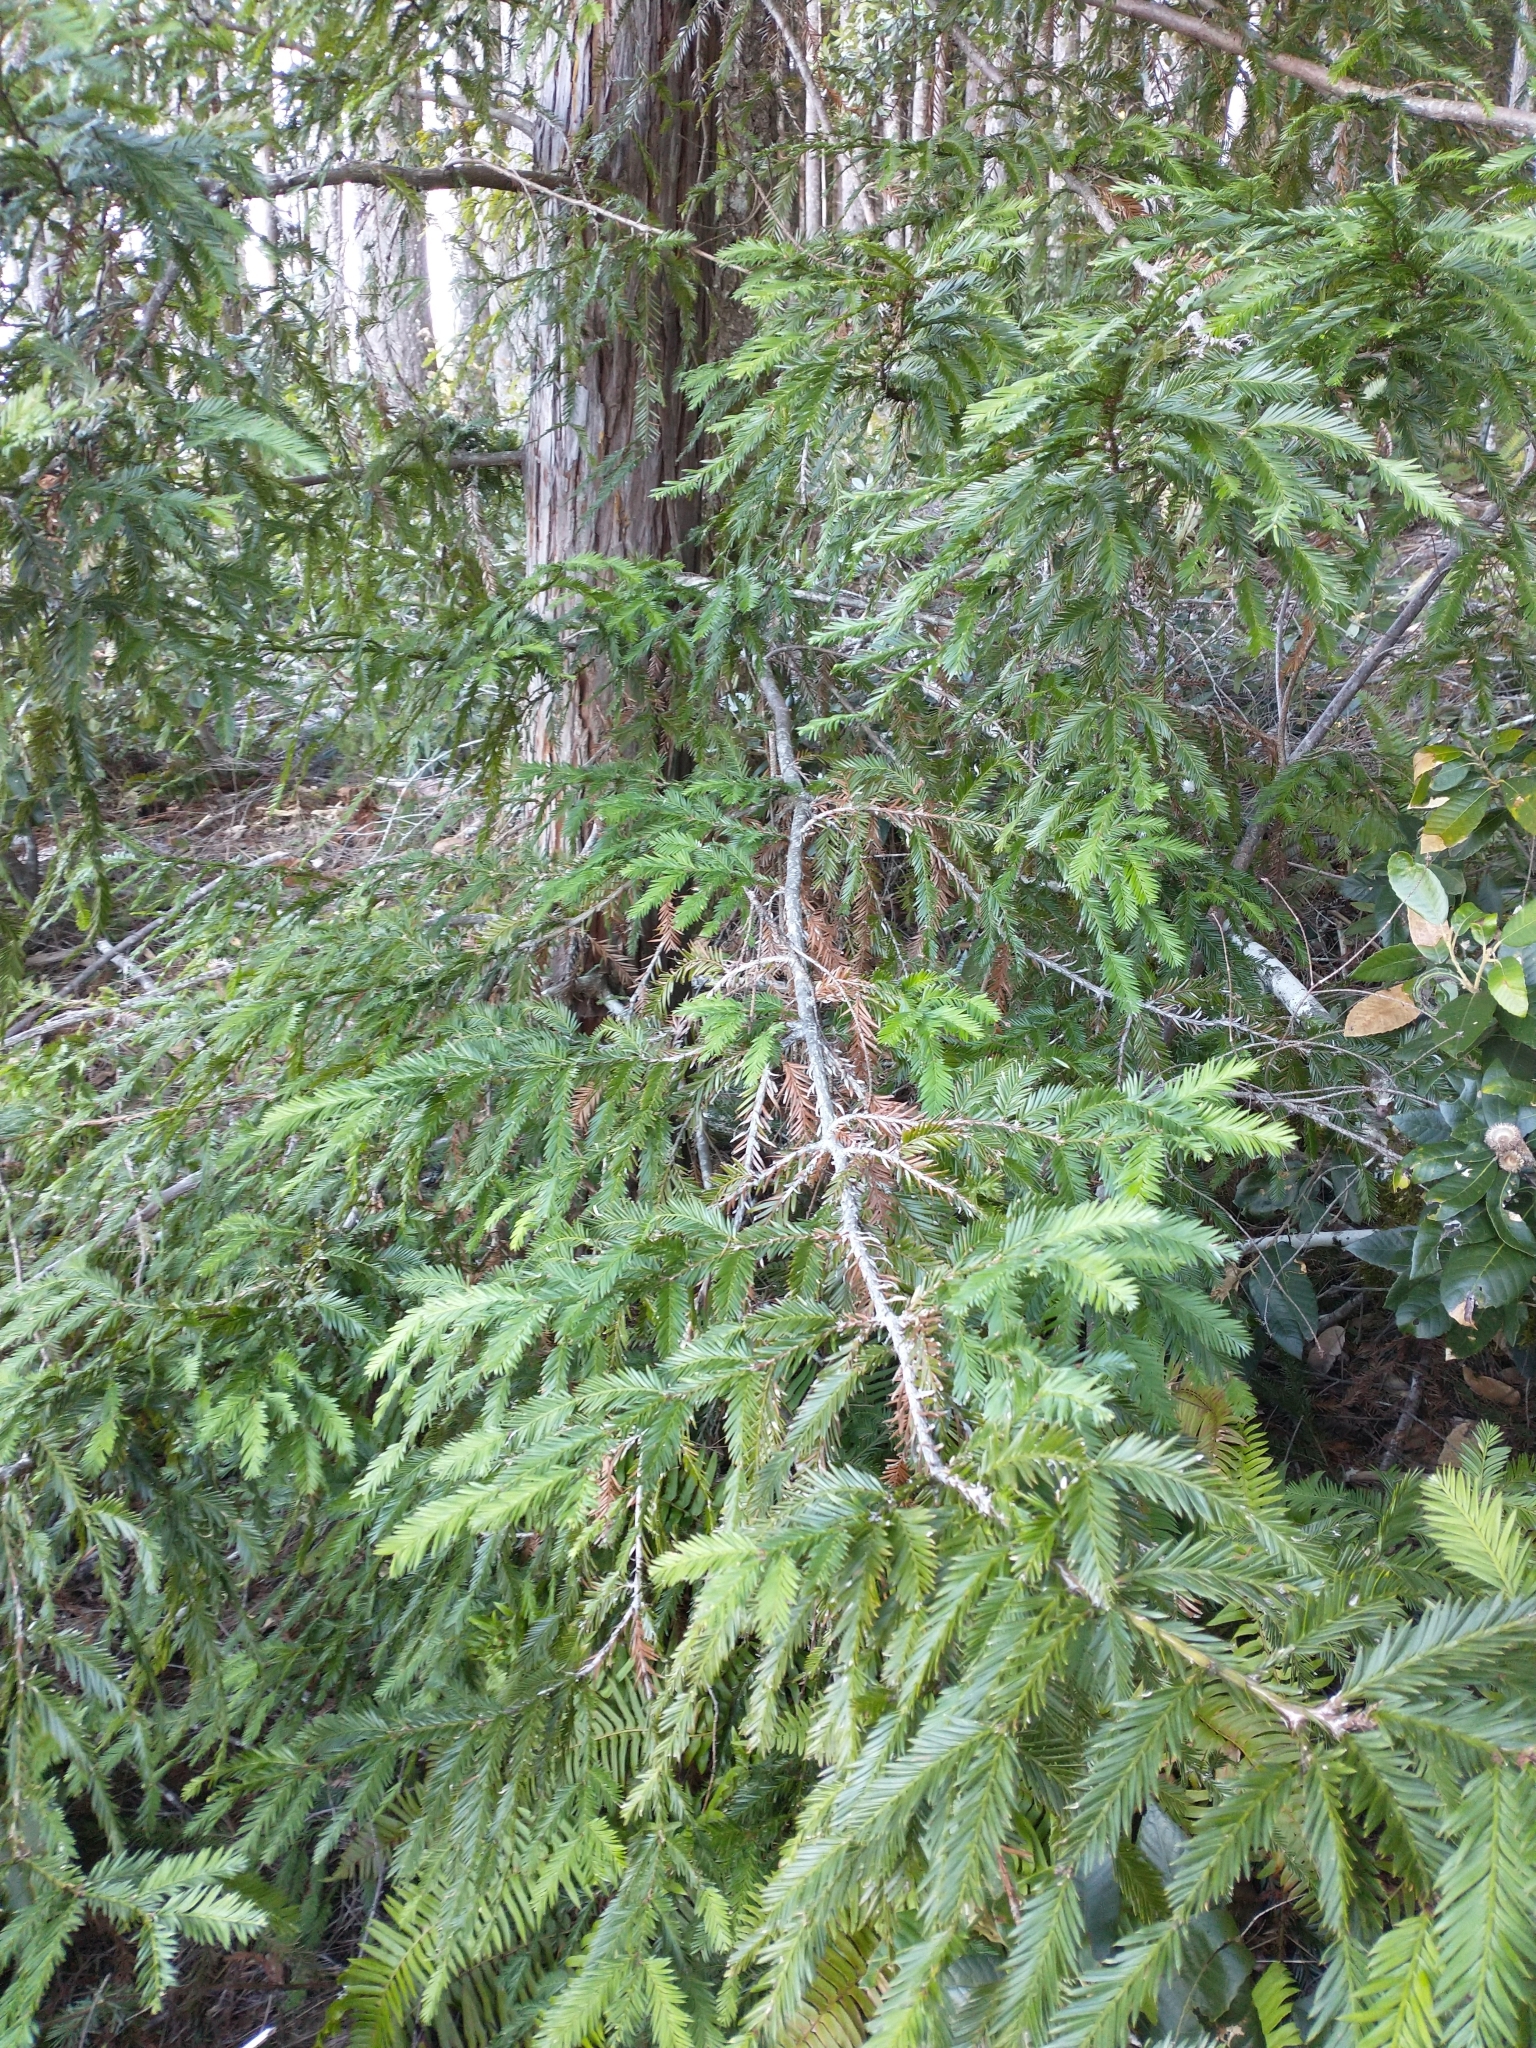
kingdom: Plantae
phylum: Tracheophyta
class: Pinopsida
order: Pinales
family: Cupressaceae
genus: Sequoia
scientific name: Sequoia sempervirens
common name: Coast redwood
